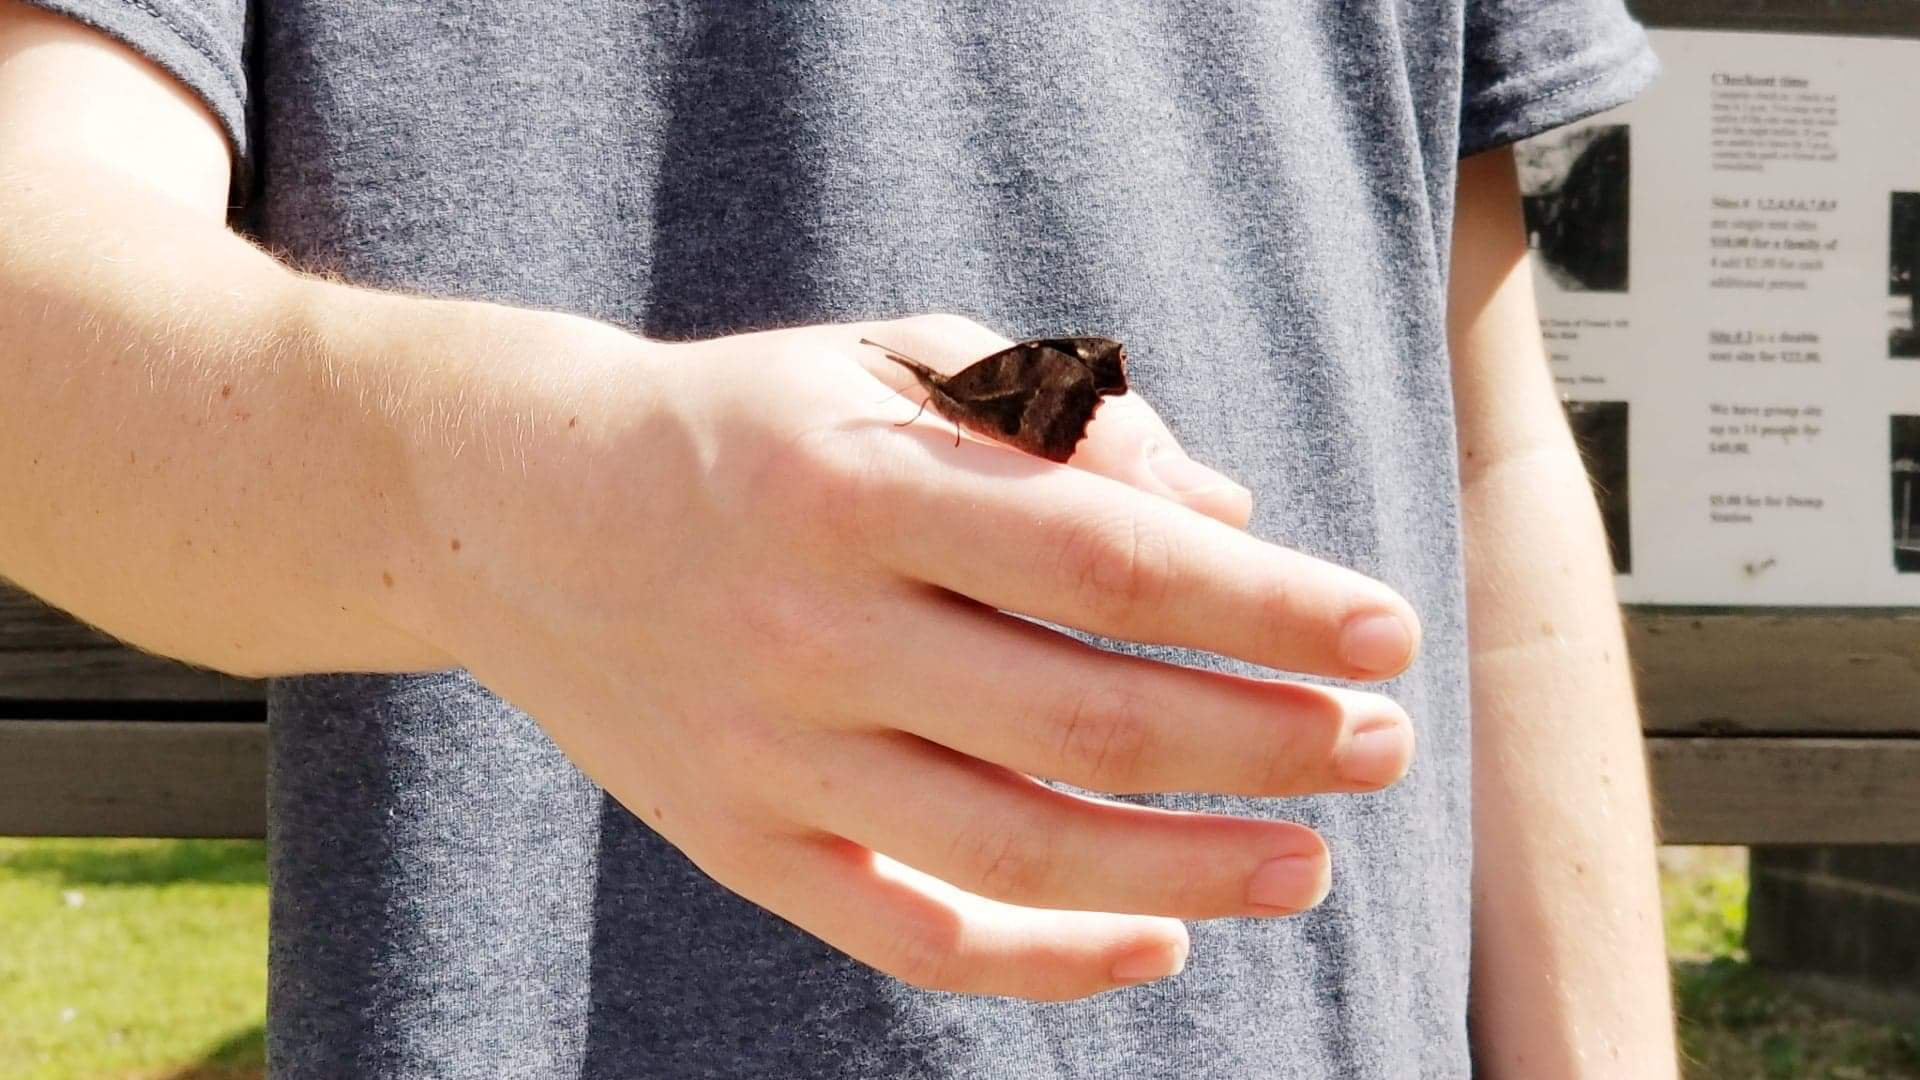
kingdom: Animalia
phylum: Arthropoda
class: Insecta
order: Lepidoptera
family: Nymphalidae
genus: Libytheana
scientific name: Libytheana carinenta
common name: American snout
